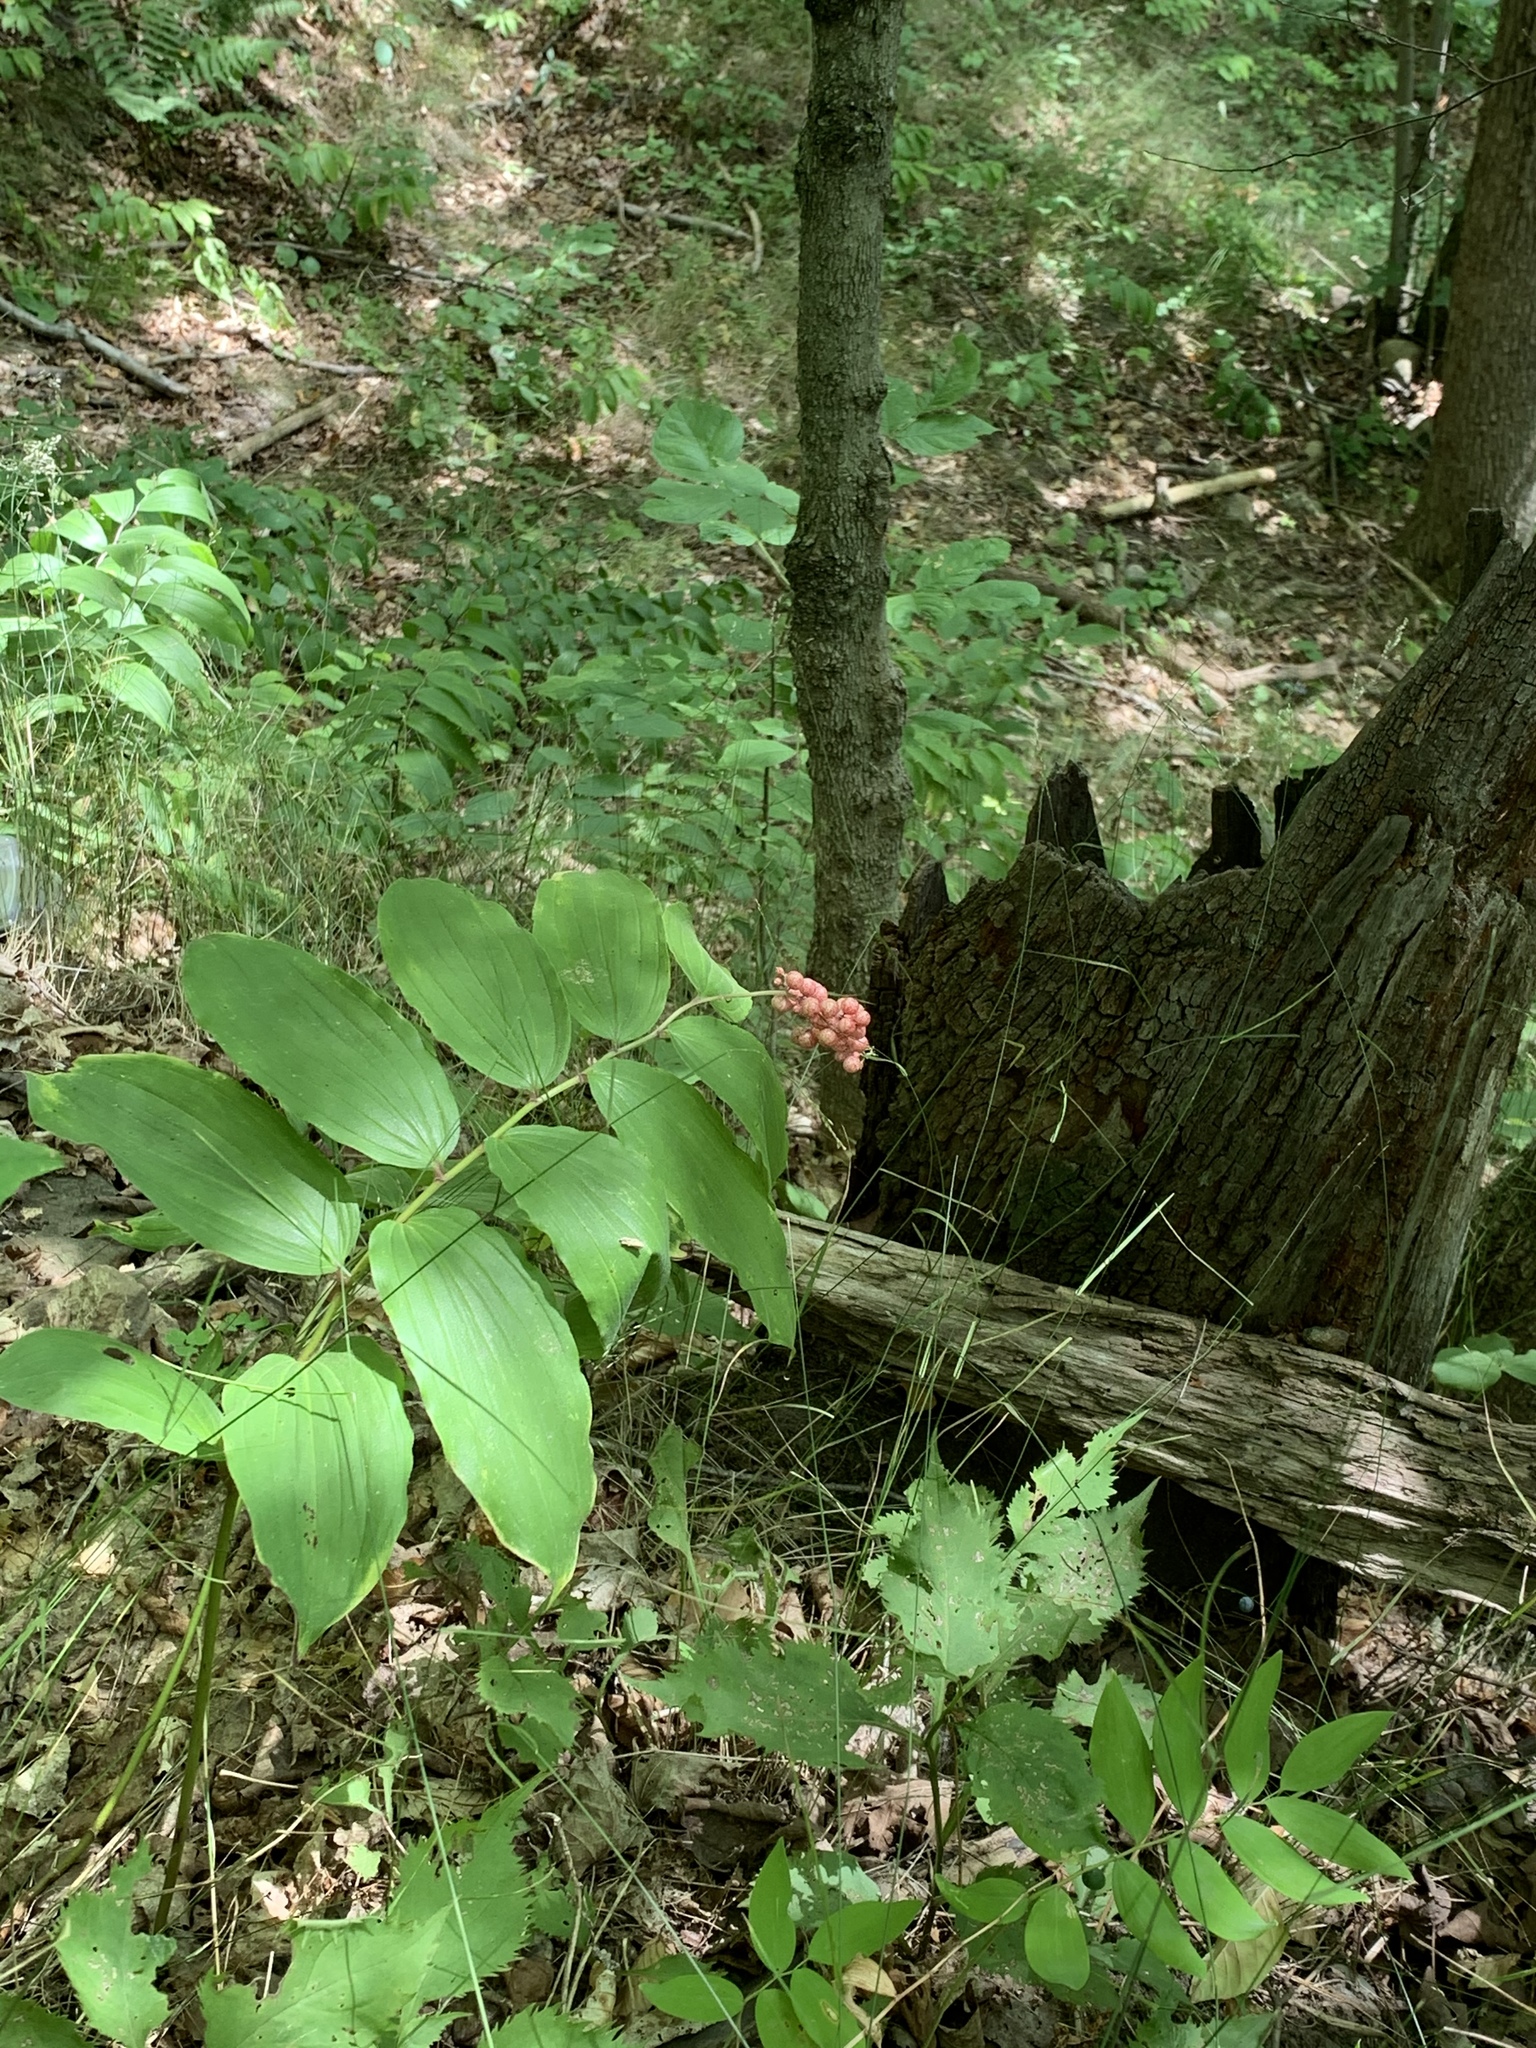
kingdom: Plantae
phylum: Tracheophyta
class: Liliopsida
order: Asparagales
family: Asparagaceae
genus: Maianthemum
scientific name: Maianthemum racemosum
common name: False spikenard
